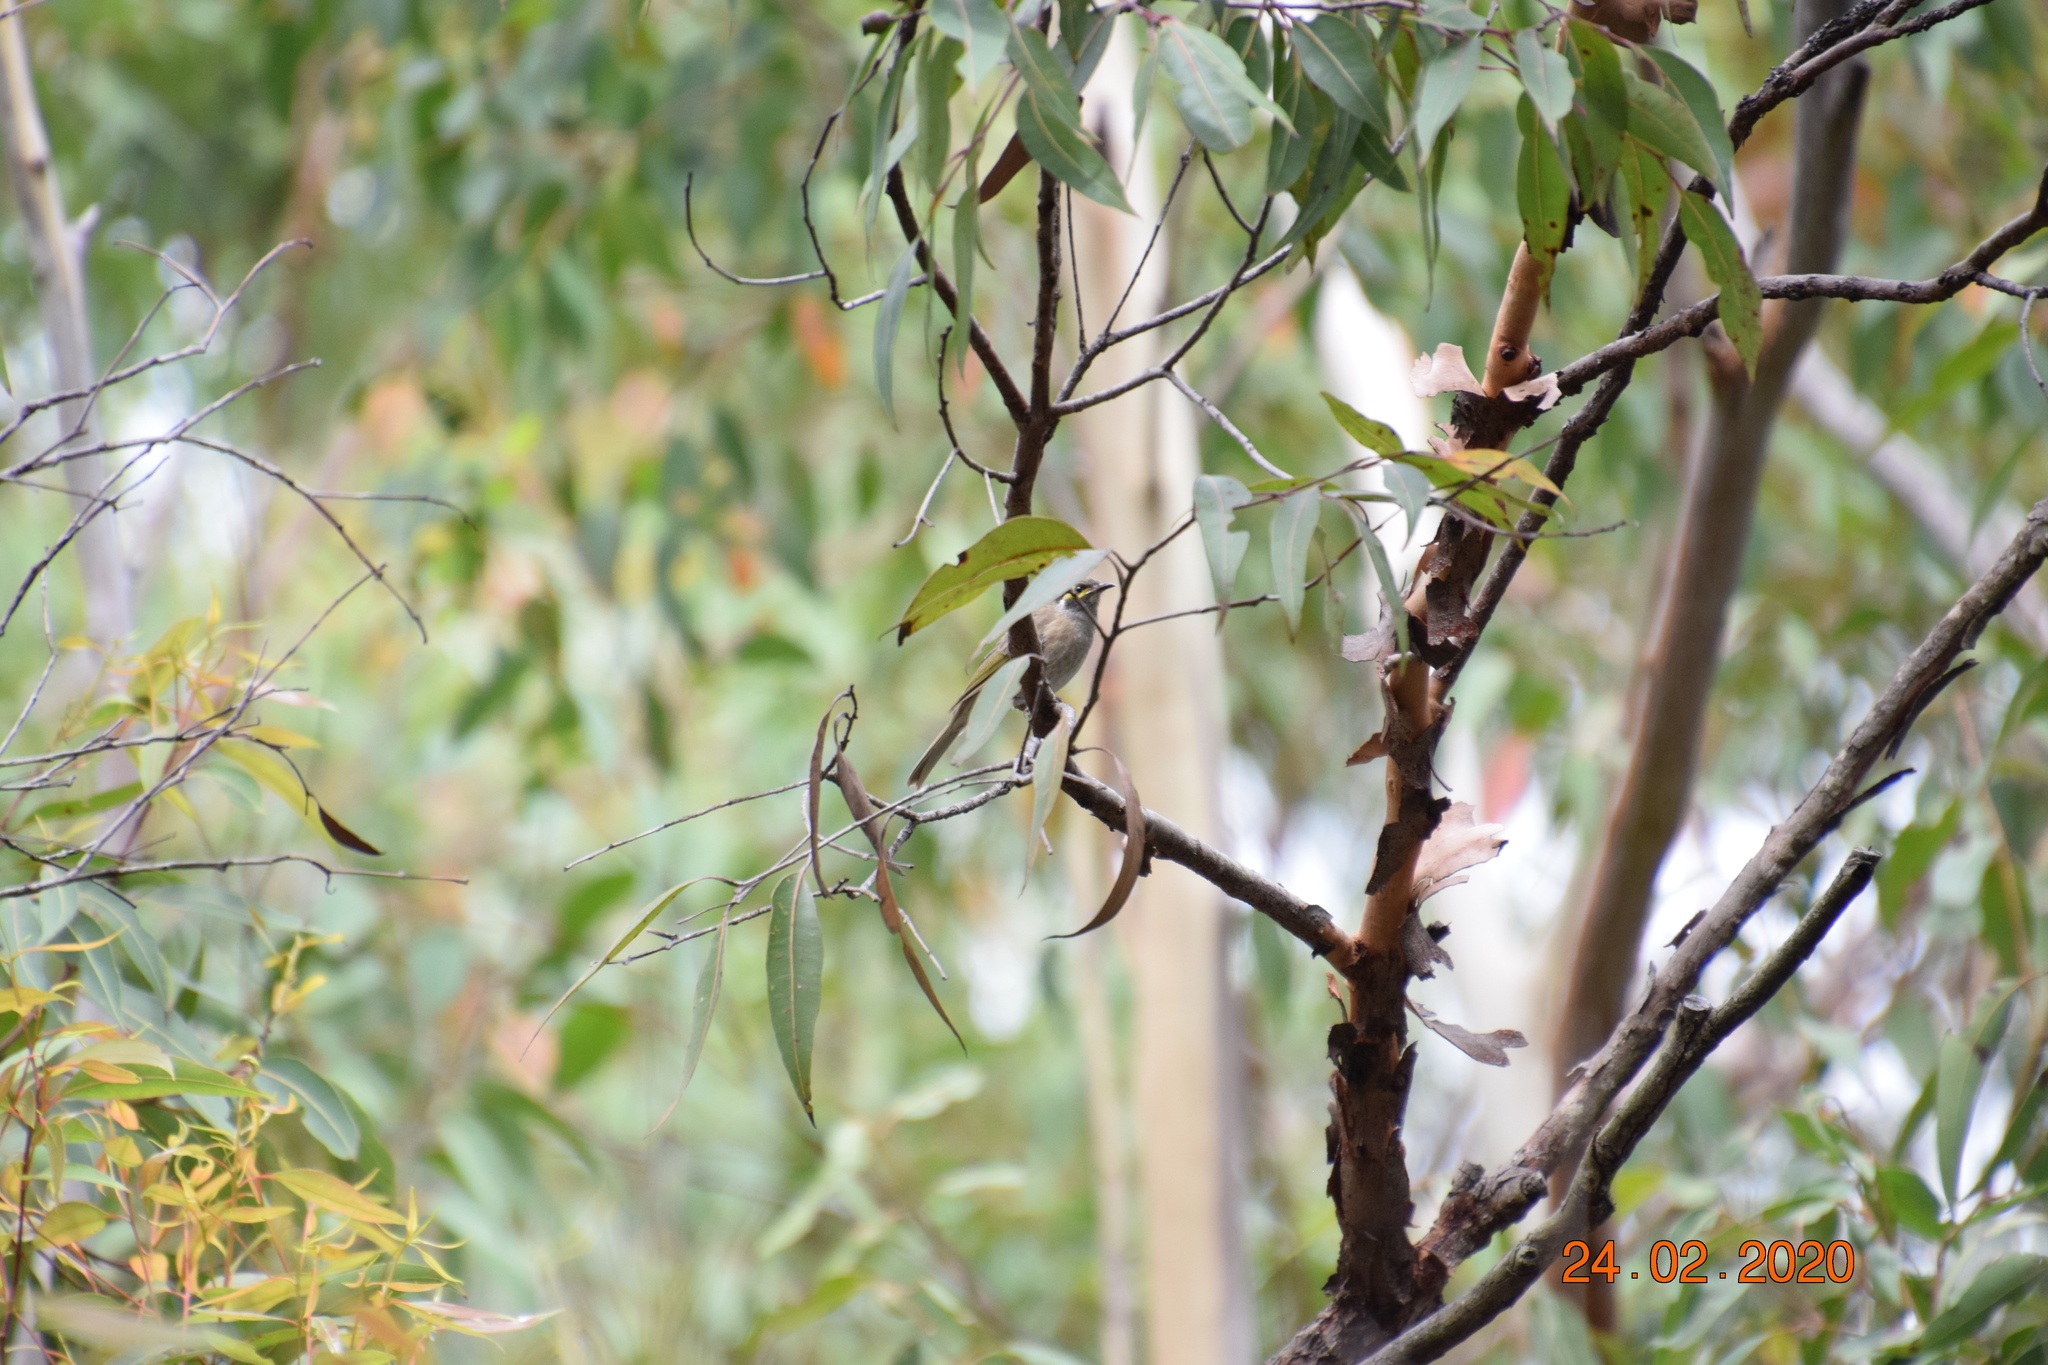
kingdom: Animalia
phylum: Chordata
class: Aves
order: Passeriformes
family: Meliphagidae
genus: Caligavis
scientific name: Caligavis chrysops
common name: Yellow-faced honeyeater
